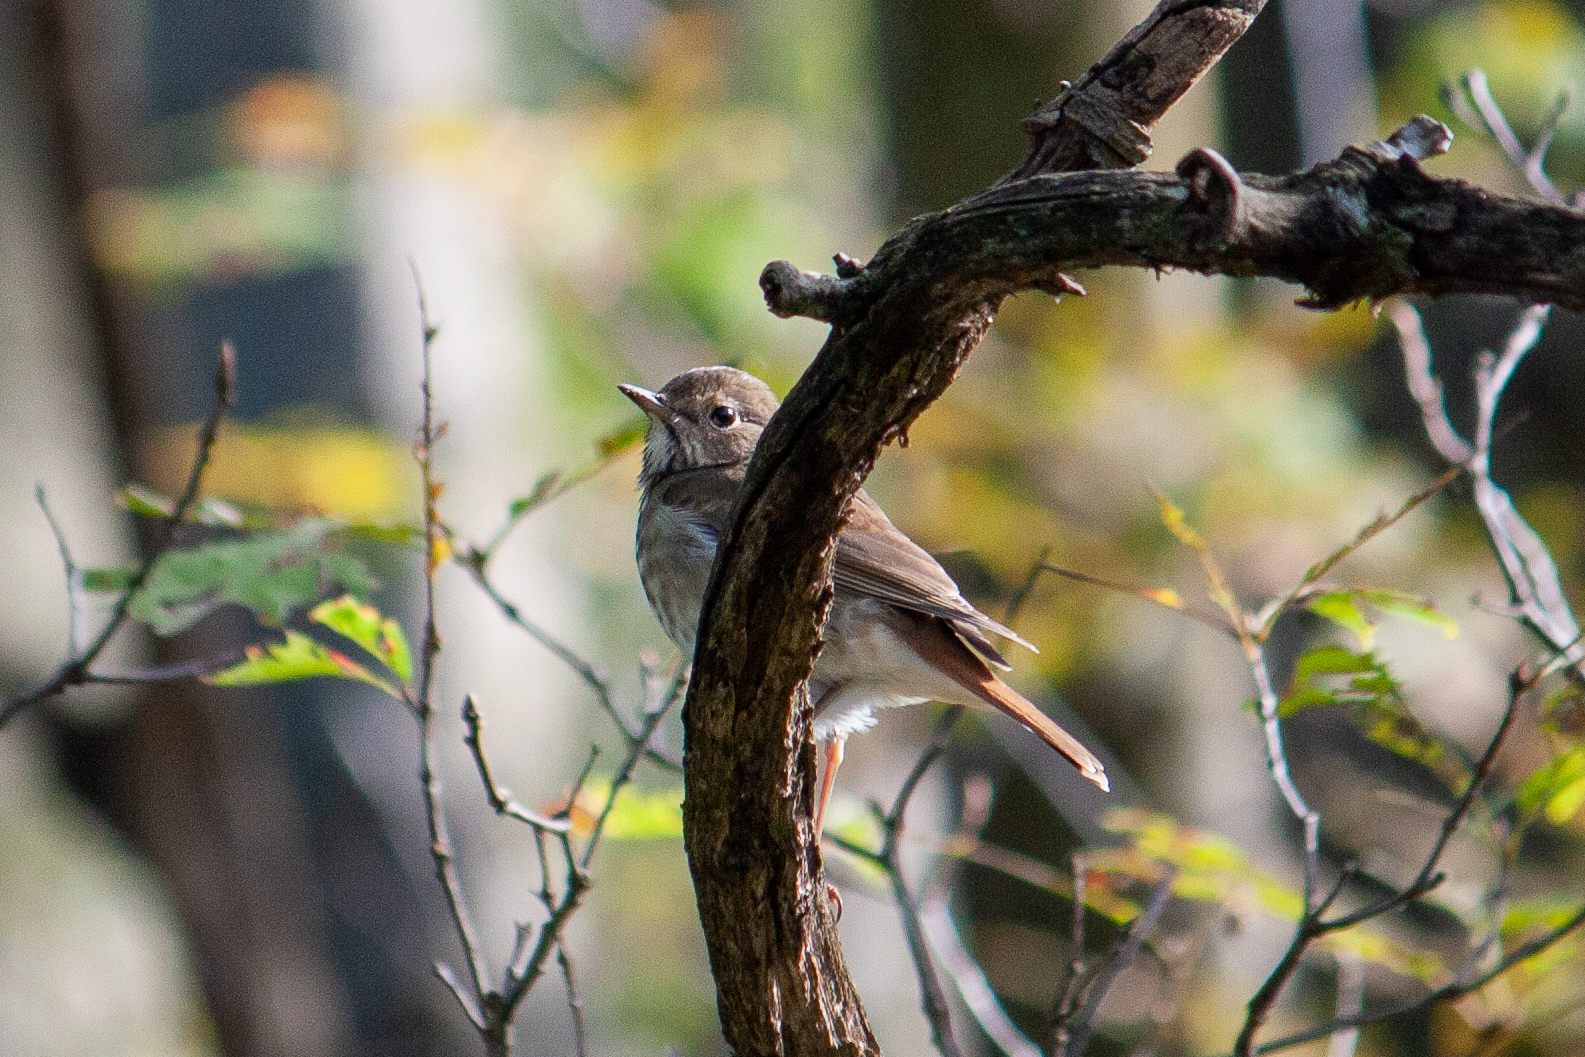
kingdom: Animalia
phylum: Chordata
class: Aves
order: Passeriformes
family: Turdidae
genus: Catharus
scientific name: Catharus guttatus
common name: Hermit thrush
